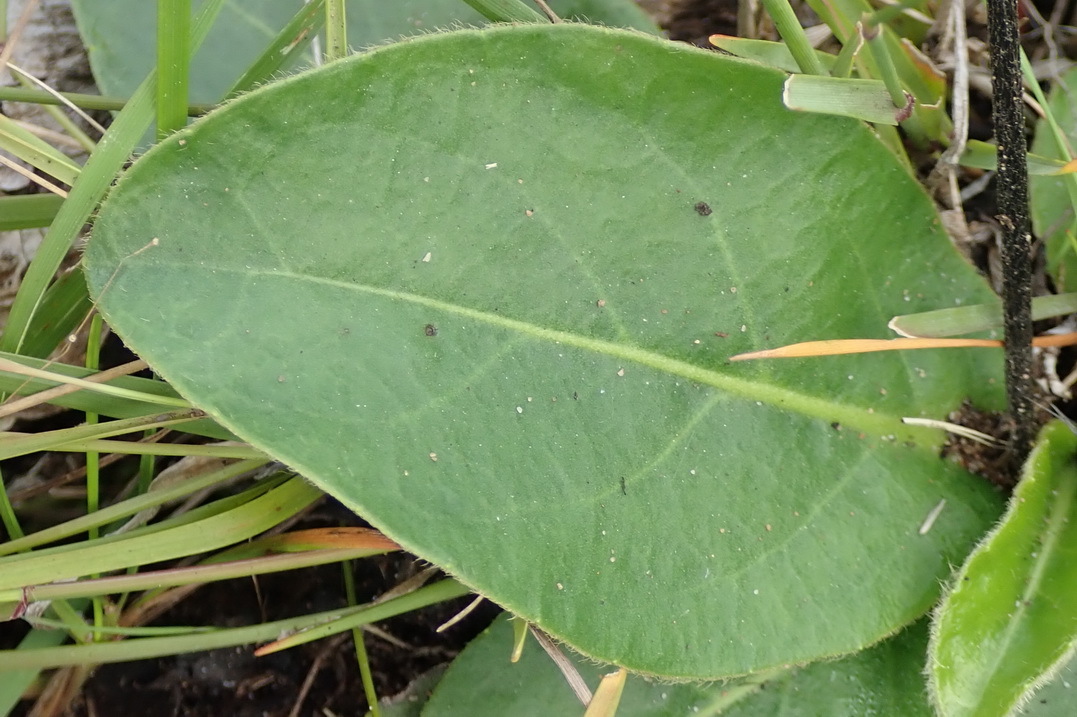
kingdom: Plantae
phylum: Tracheophyta
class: Magnoliopsida
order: Asterales
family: Asteraceae
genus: Piloselloides
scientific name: Piloselloides hirsuta
